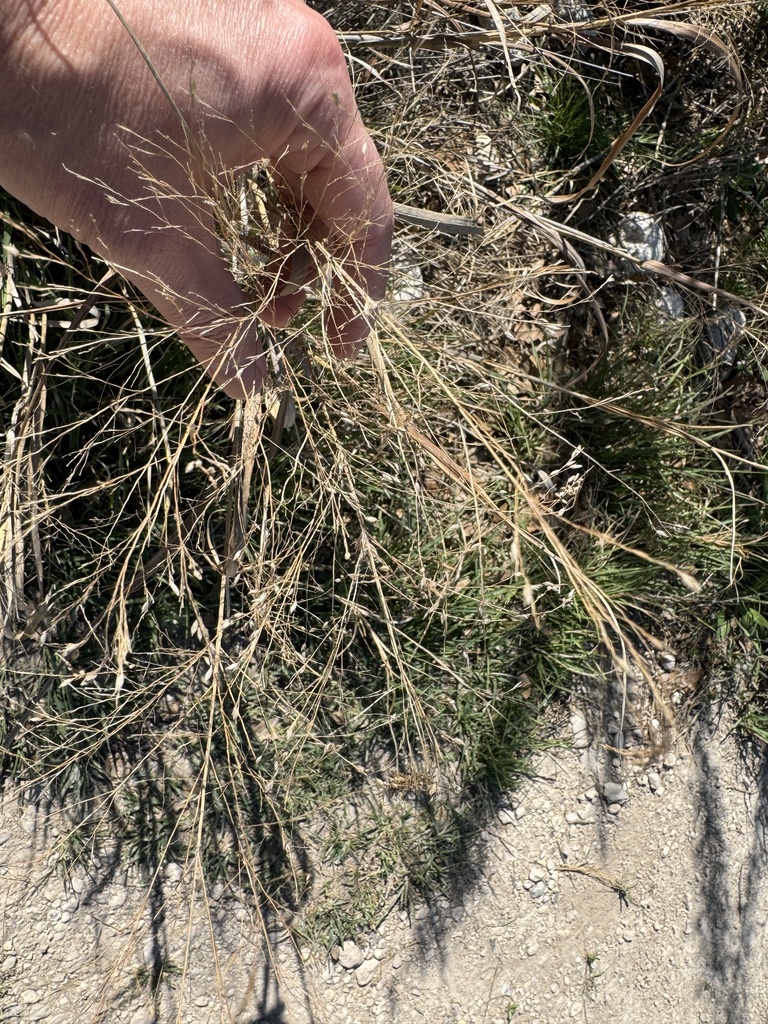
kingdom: Plantae
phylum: Tracheophyta
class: Liliopsida
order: Poales
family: Poaceae
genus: Panicum
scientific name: Panicum virgatum
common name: Switchgrass
